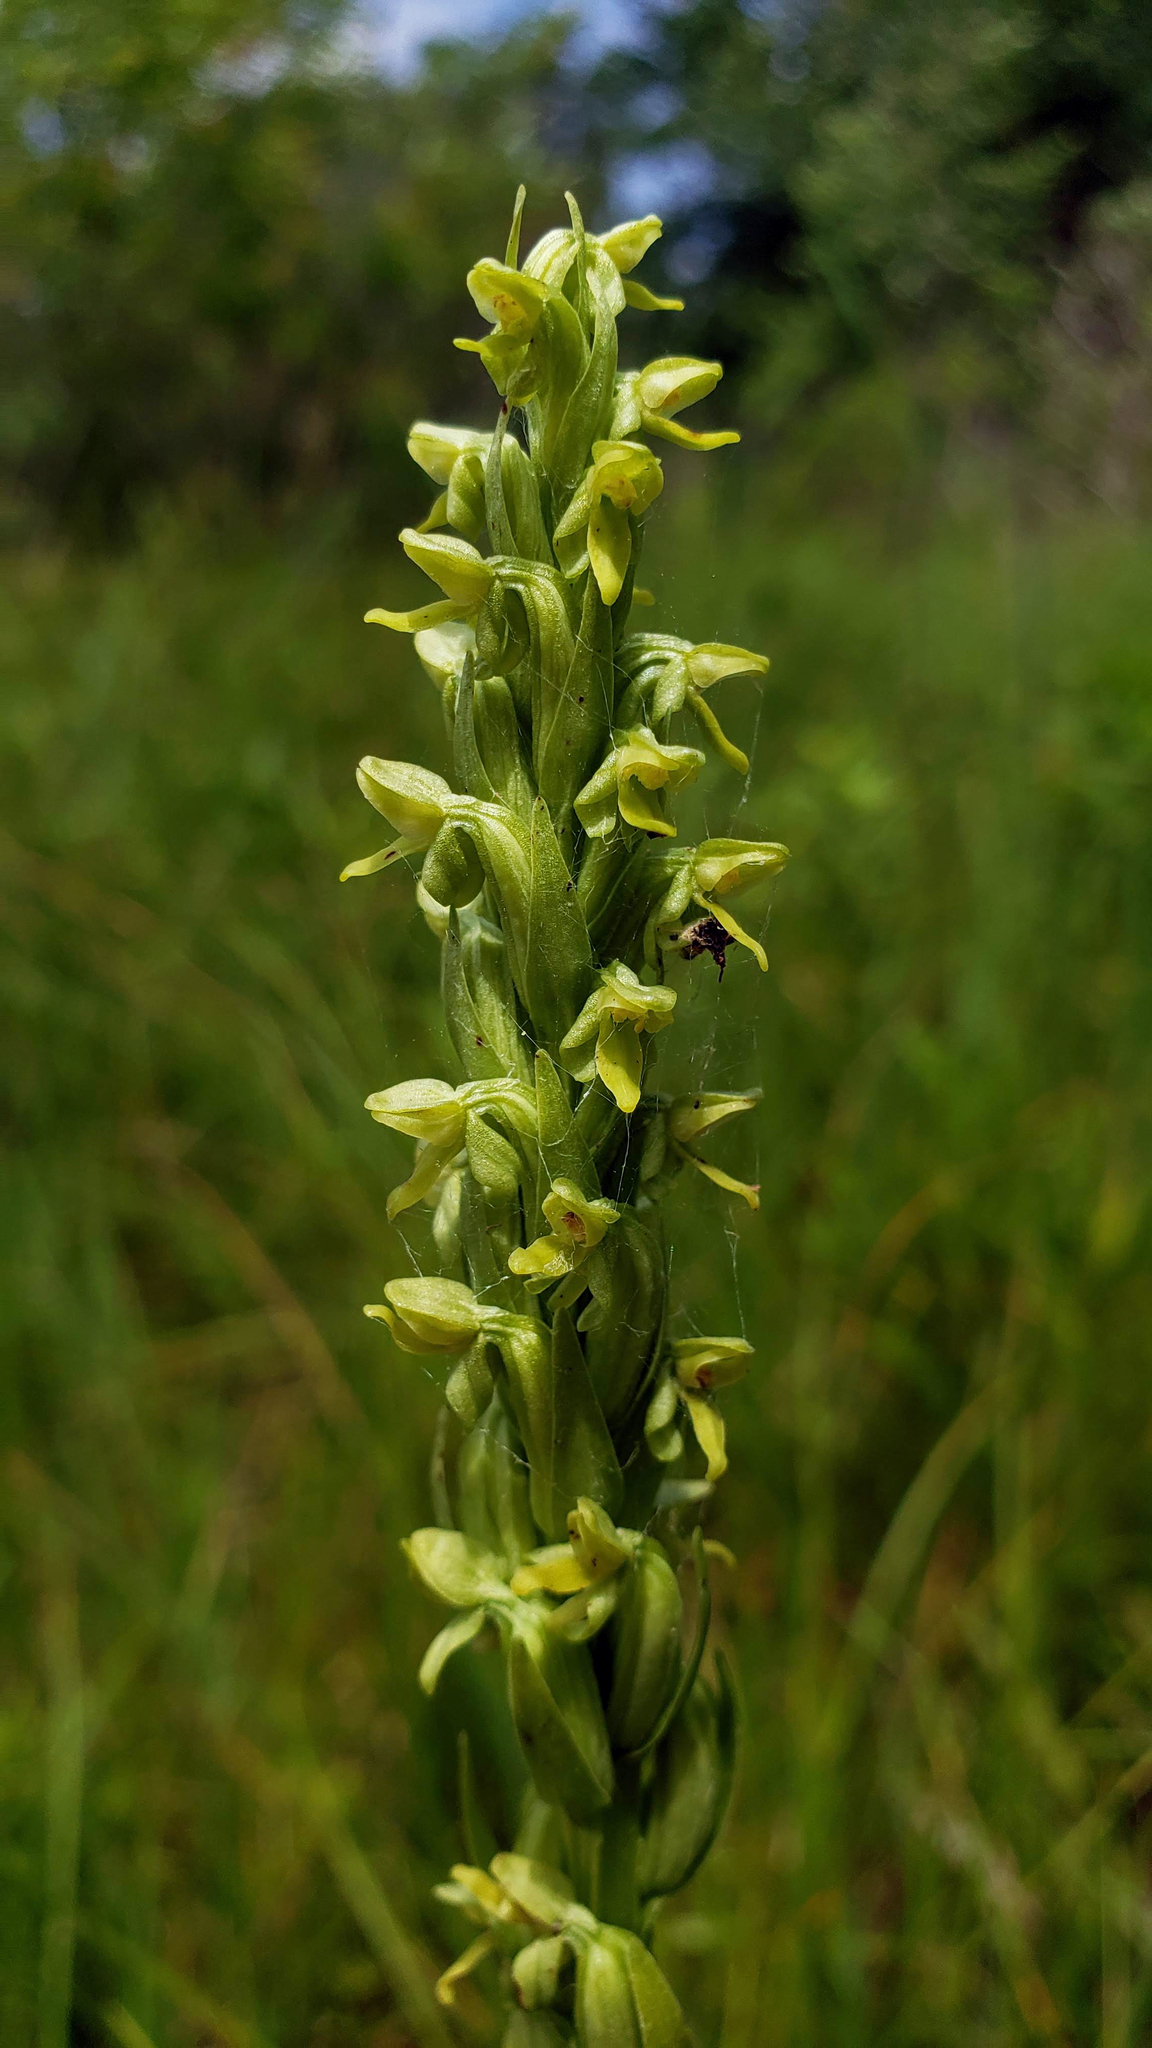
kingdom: Plantae
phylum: Tracheophyta
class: Liliopsida
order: Asparagales
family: Orchidaceae
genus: Platanthera
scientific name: Platanthera aquilonis
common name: Northern green orchid
